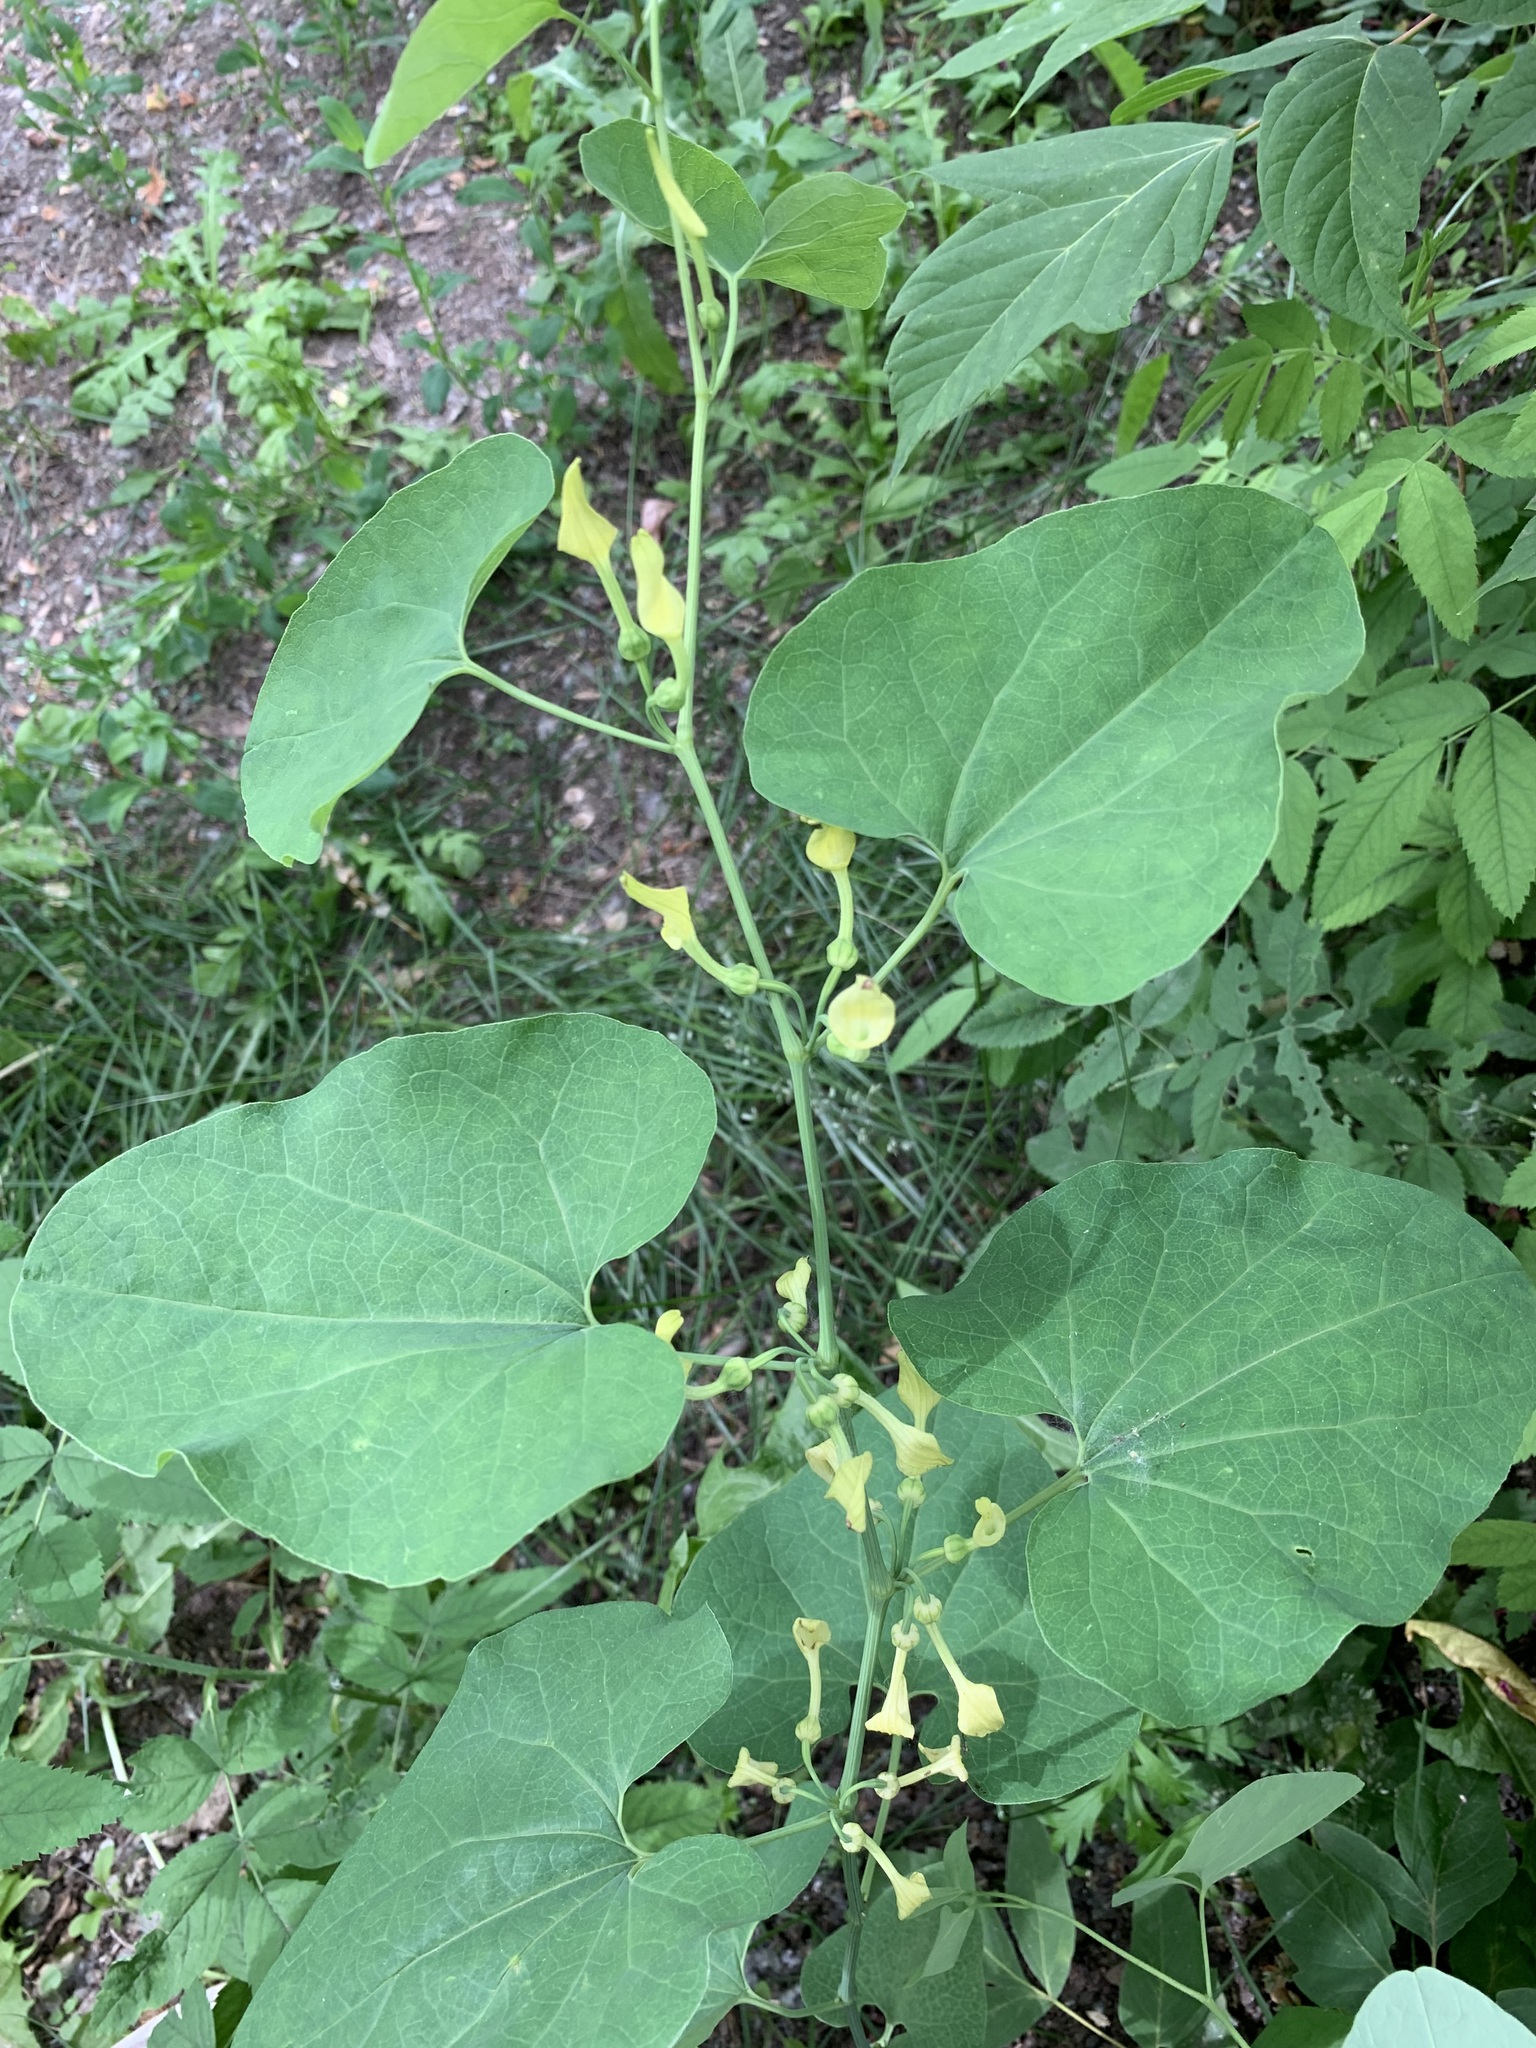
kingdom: Plantae
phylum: Tracheophyta
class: Magnoliopsida
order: Piperales
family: Aristolochiaceae
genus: Aristolochia
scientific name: Aristolochia clematitis
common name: Birthwort
